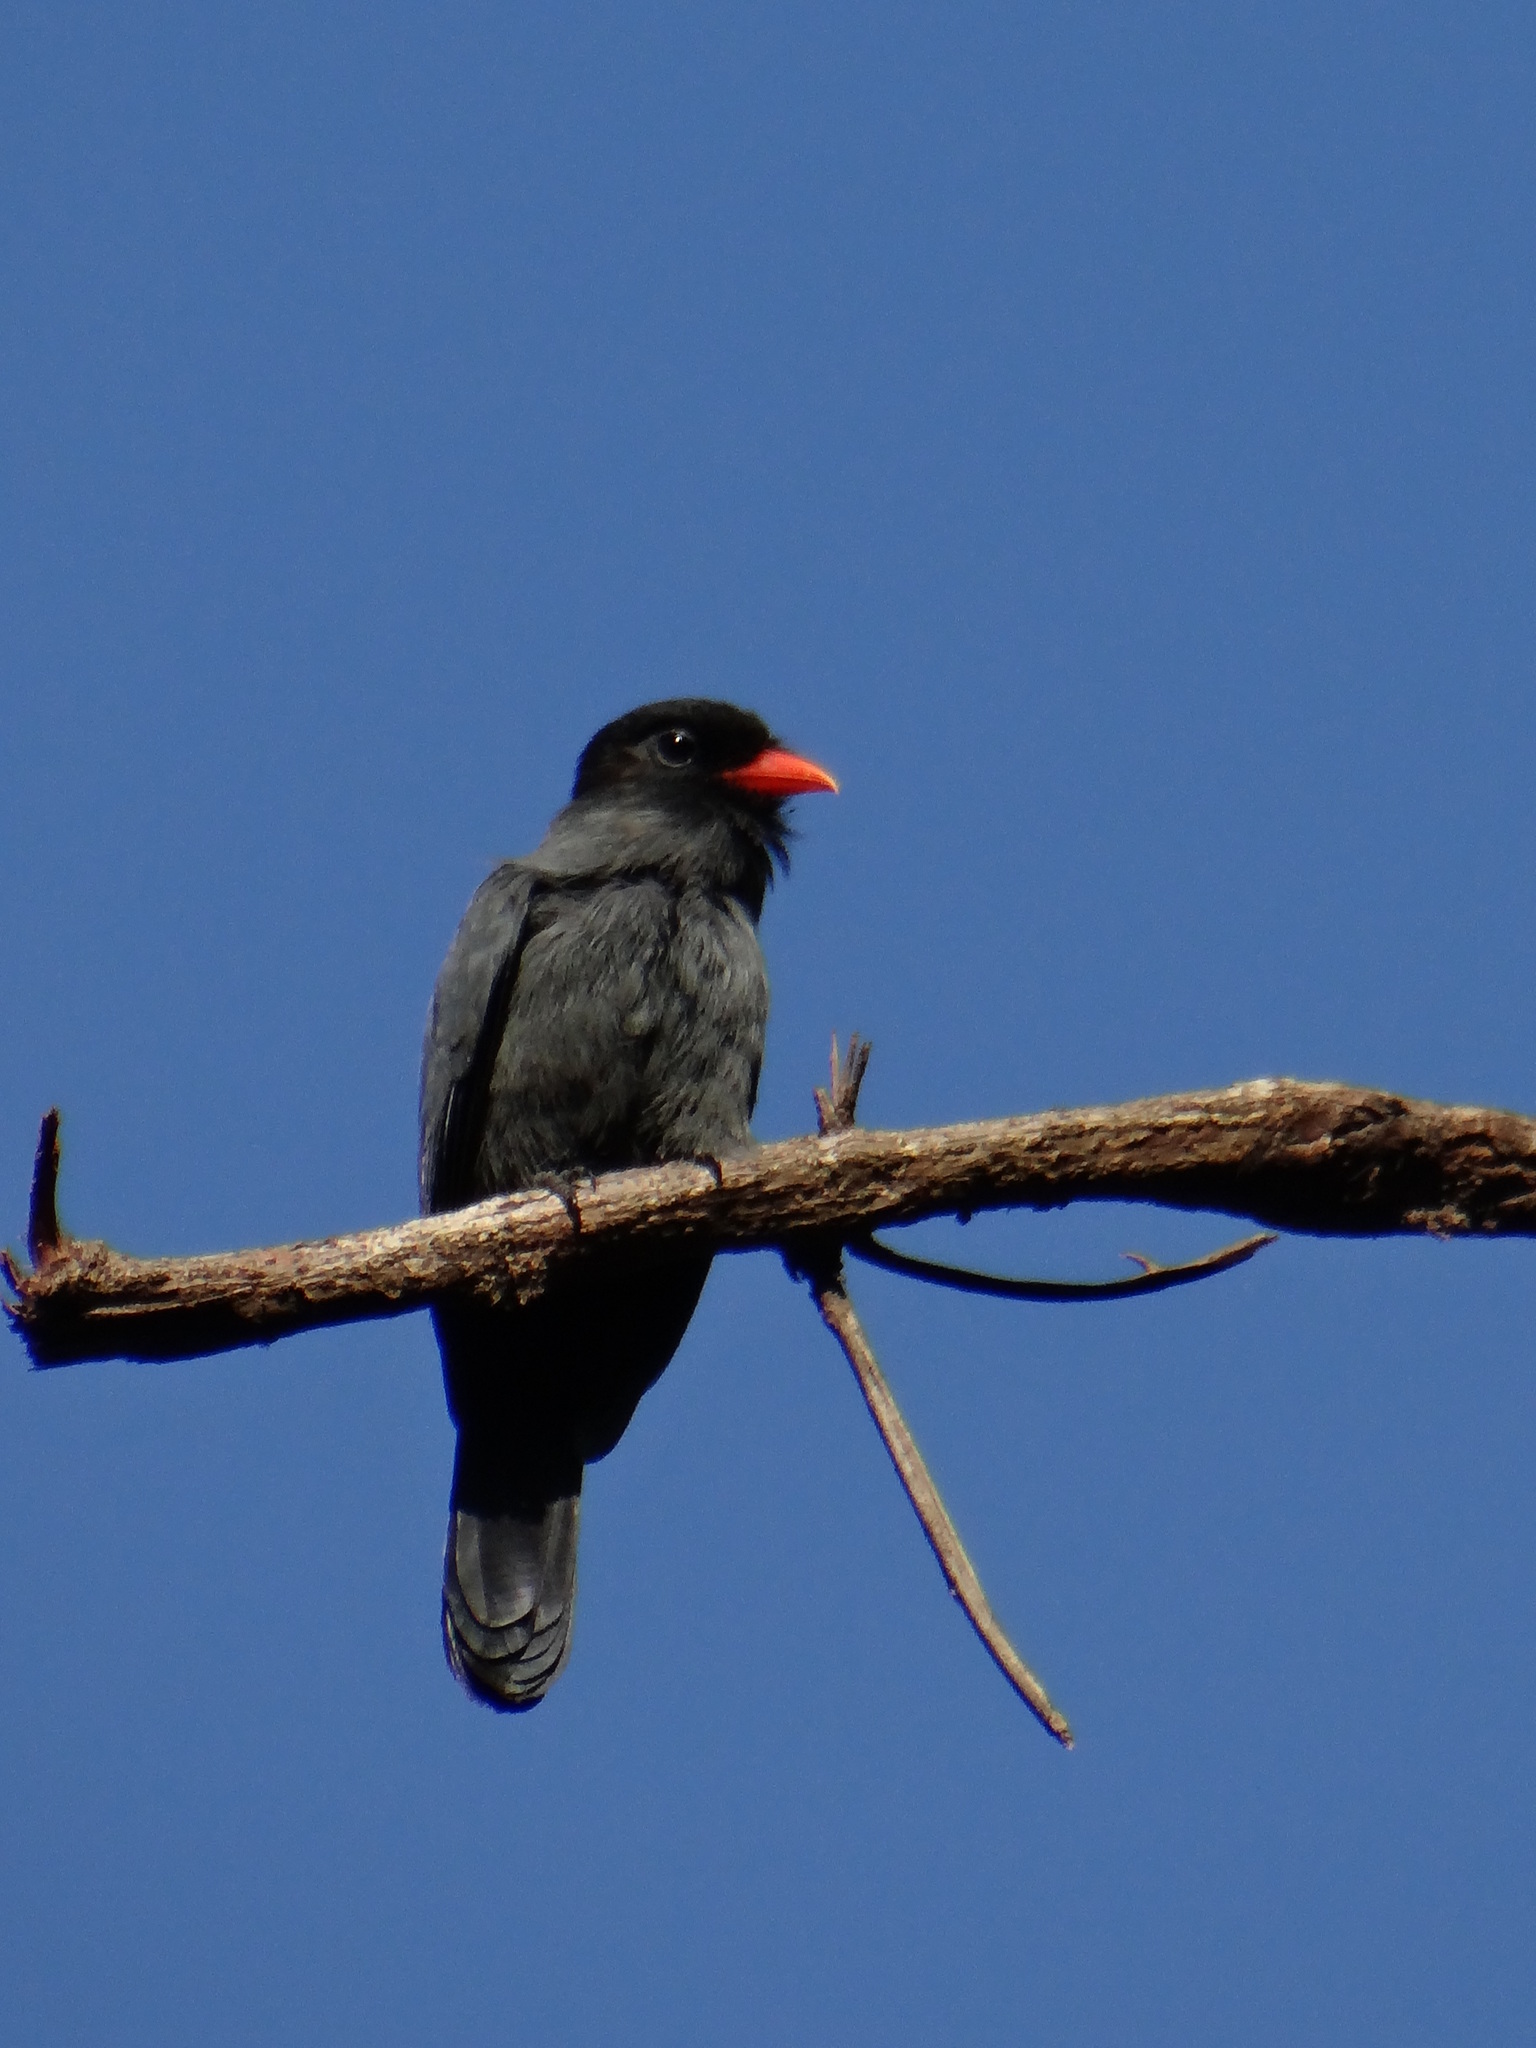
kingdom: Animalia
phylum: Chordata
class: Aves
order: Piciformes
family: Bucconidae
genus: Monasa
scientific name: Monasa nigrifrons
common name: Black-fronted nunbird
